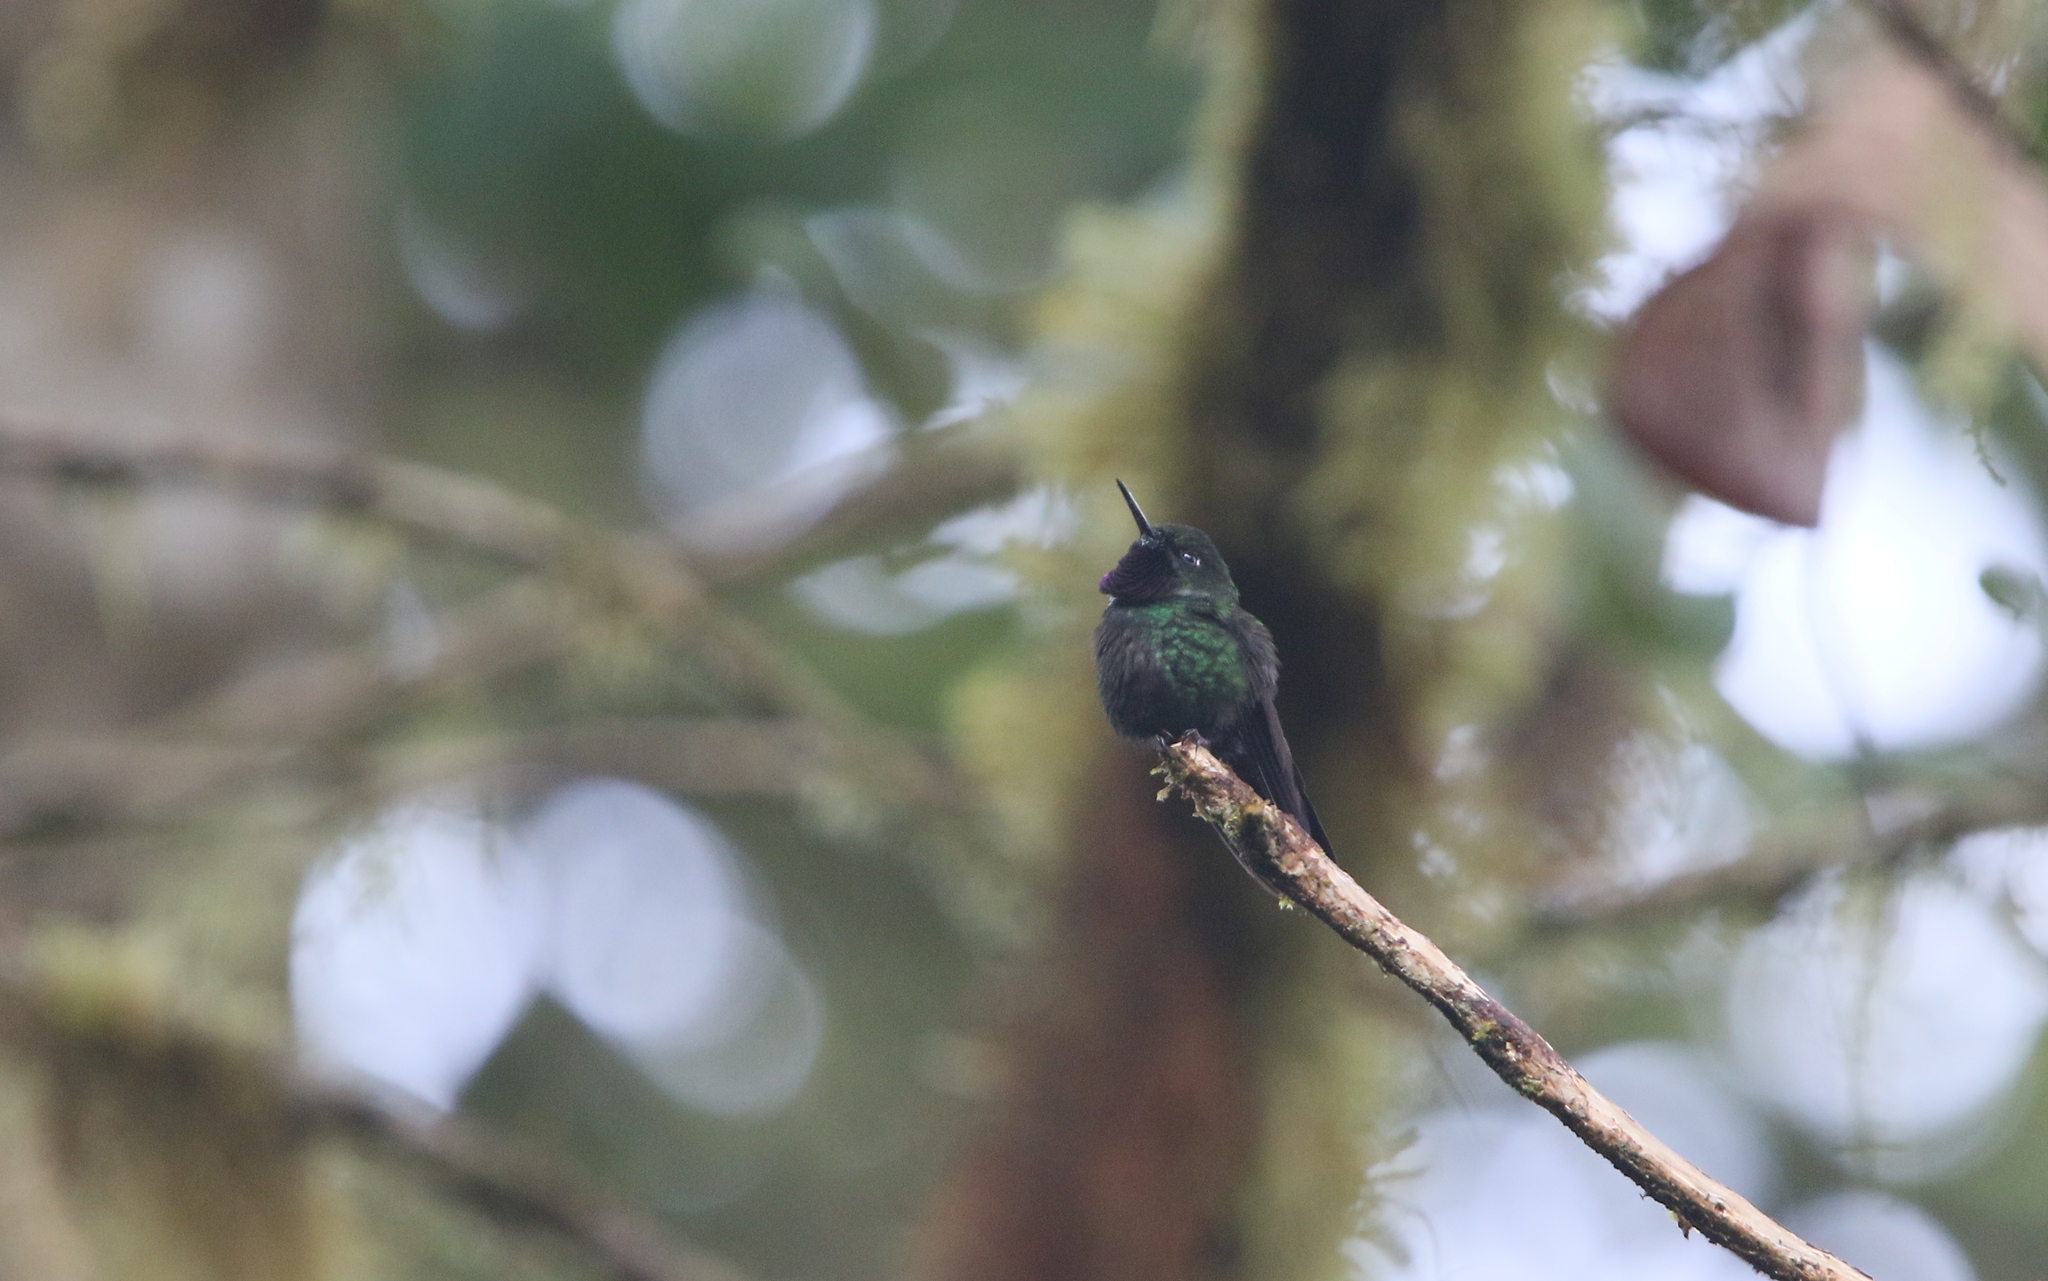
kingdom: Animalia
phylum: Chordata
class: Aves
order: Apodiformes
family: Trochilidae
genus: Heliangelus
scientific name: Heliangelus strophianus
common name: Gorgeted sunangel
